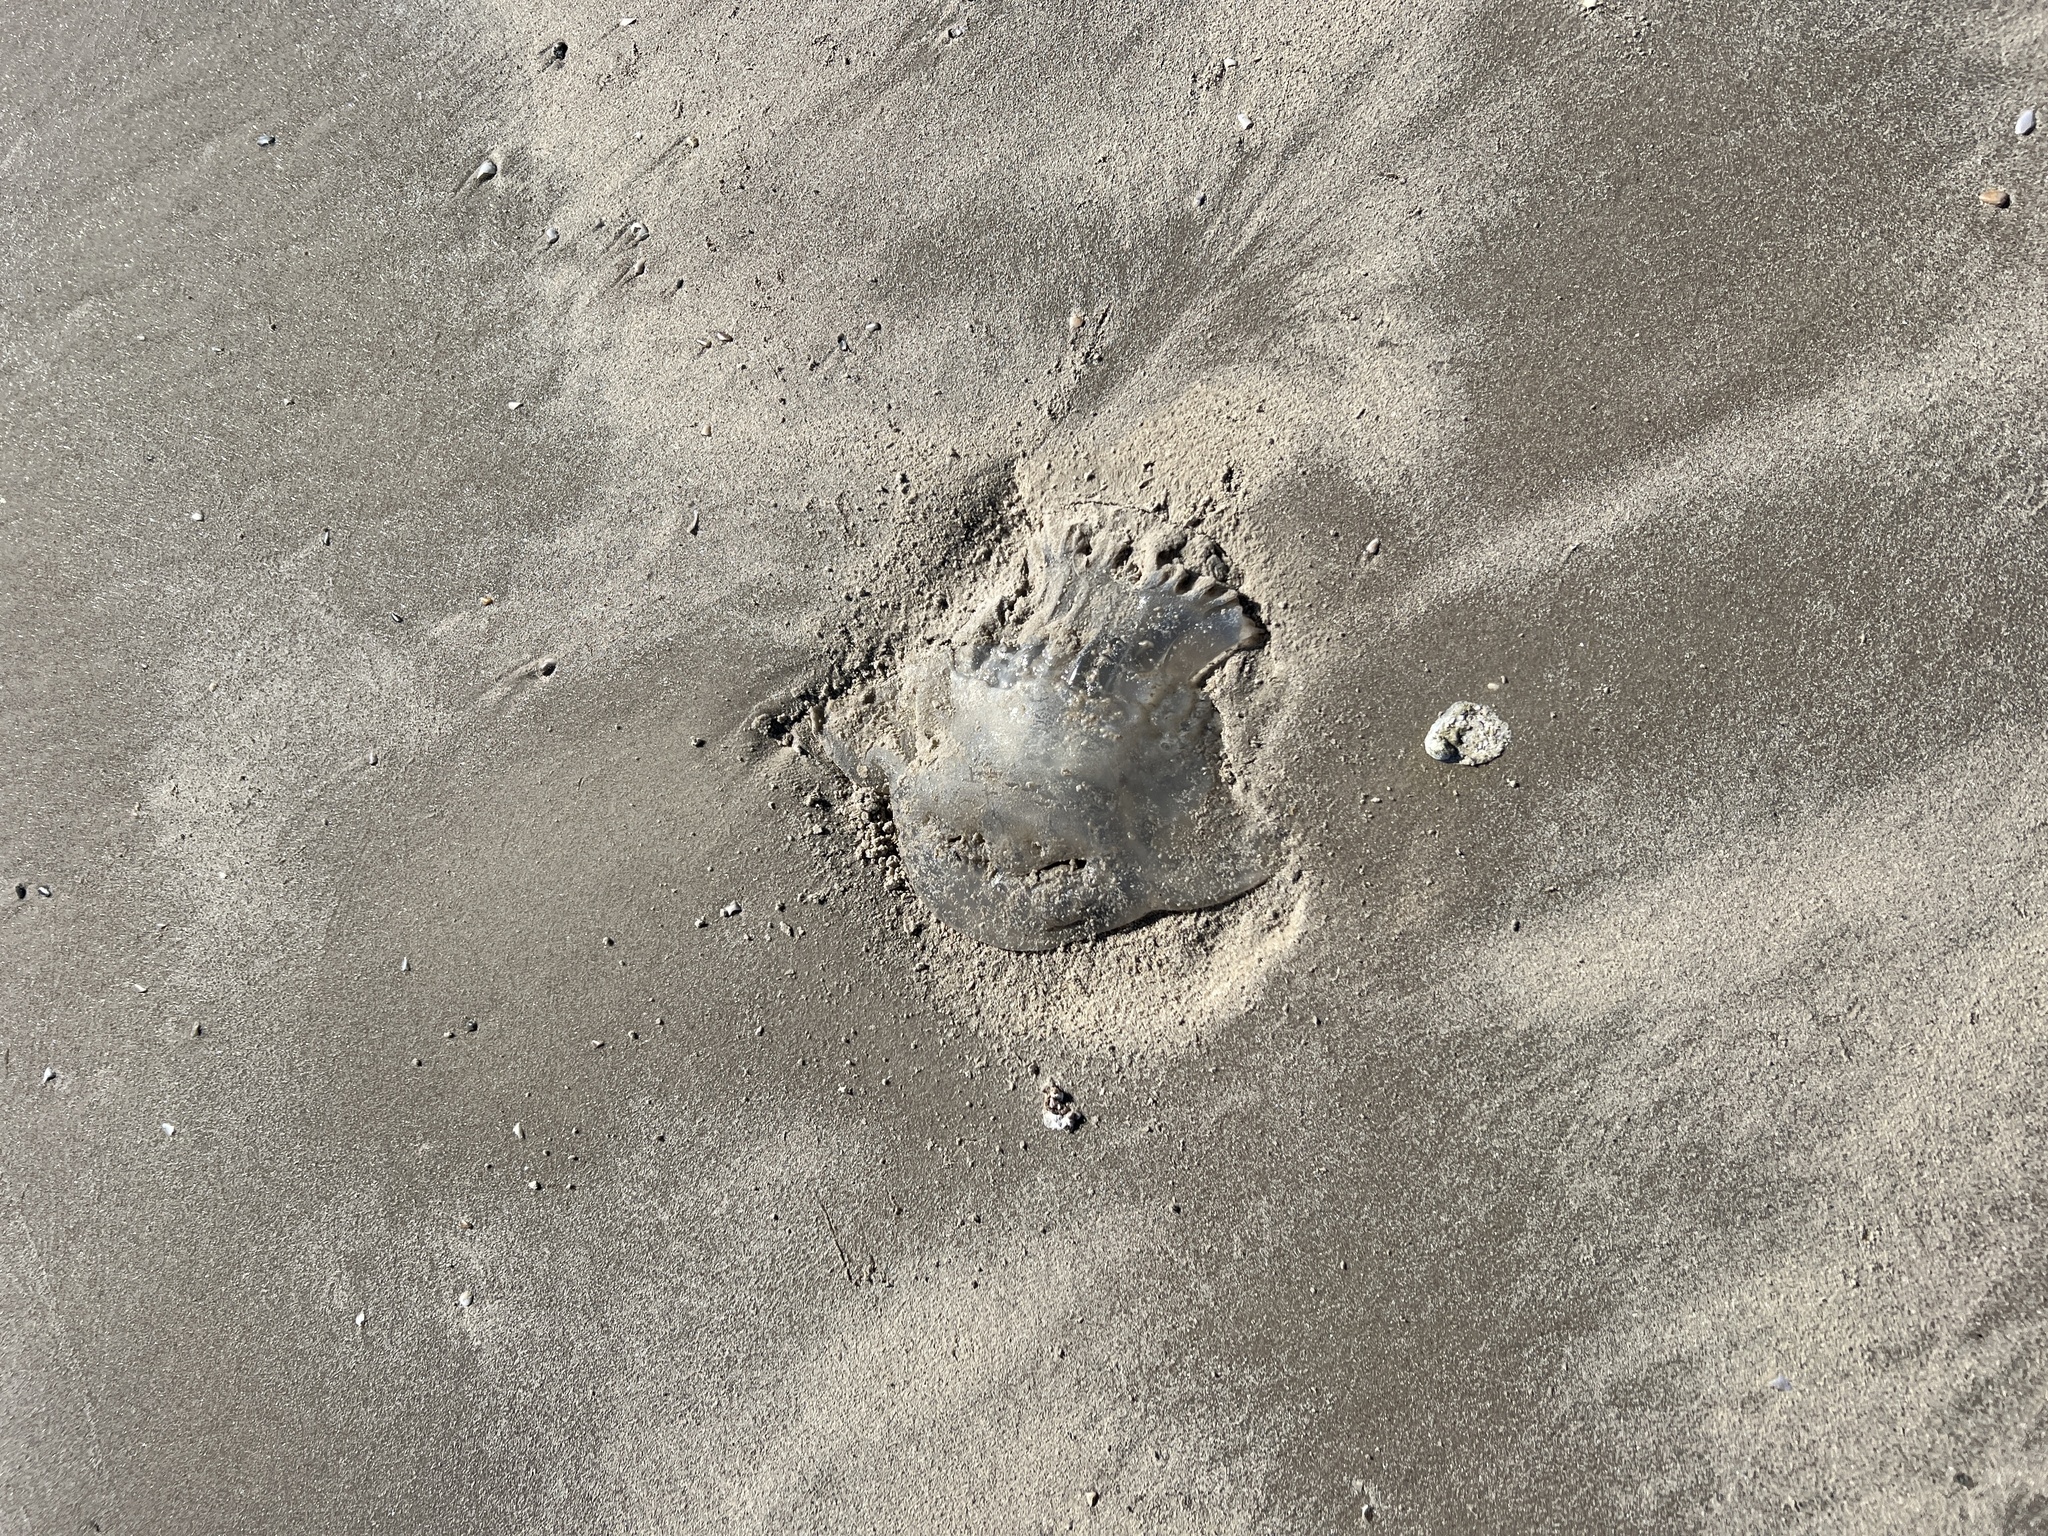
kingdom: Animalia
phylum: Cnidaria
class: Scyphozoa
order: Rhizostomeae
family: Stomolophidae
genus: Stomolophus
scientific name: Stomolophus meleagris
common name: Cabbagehead
